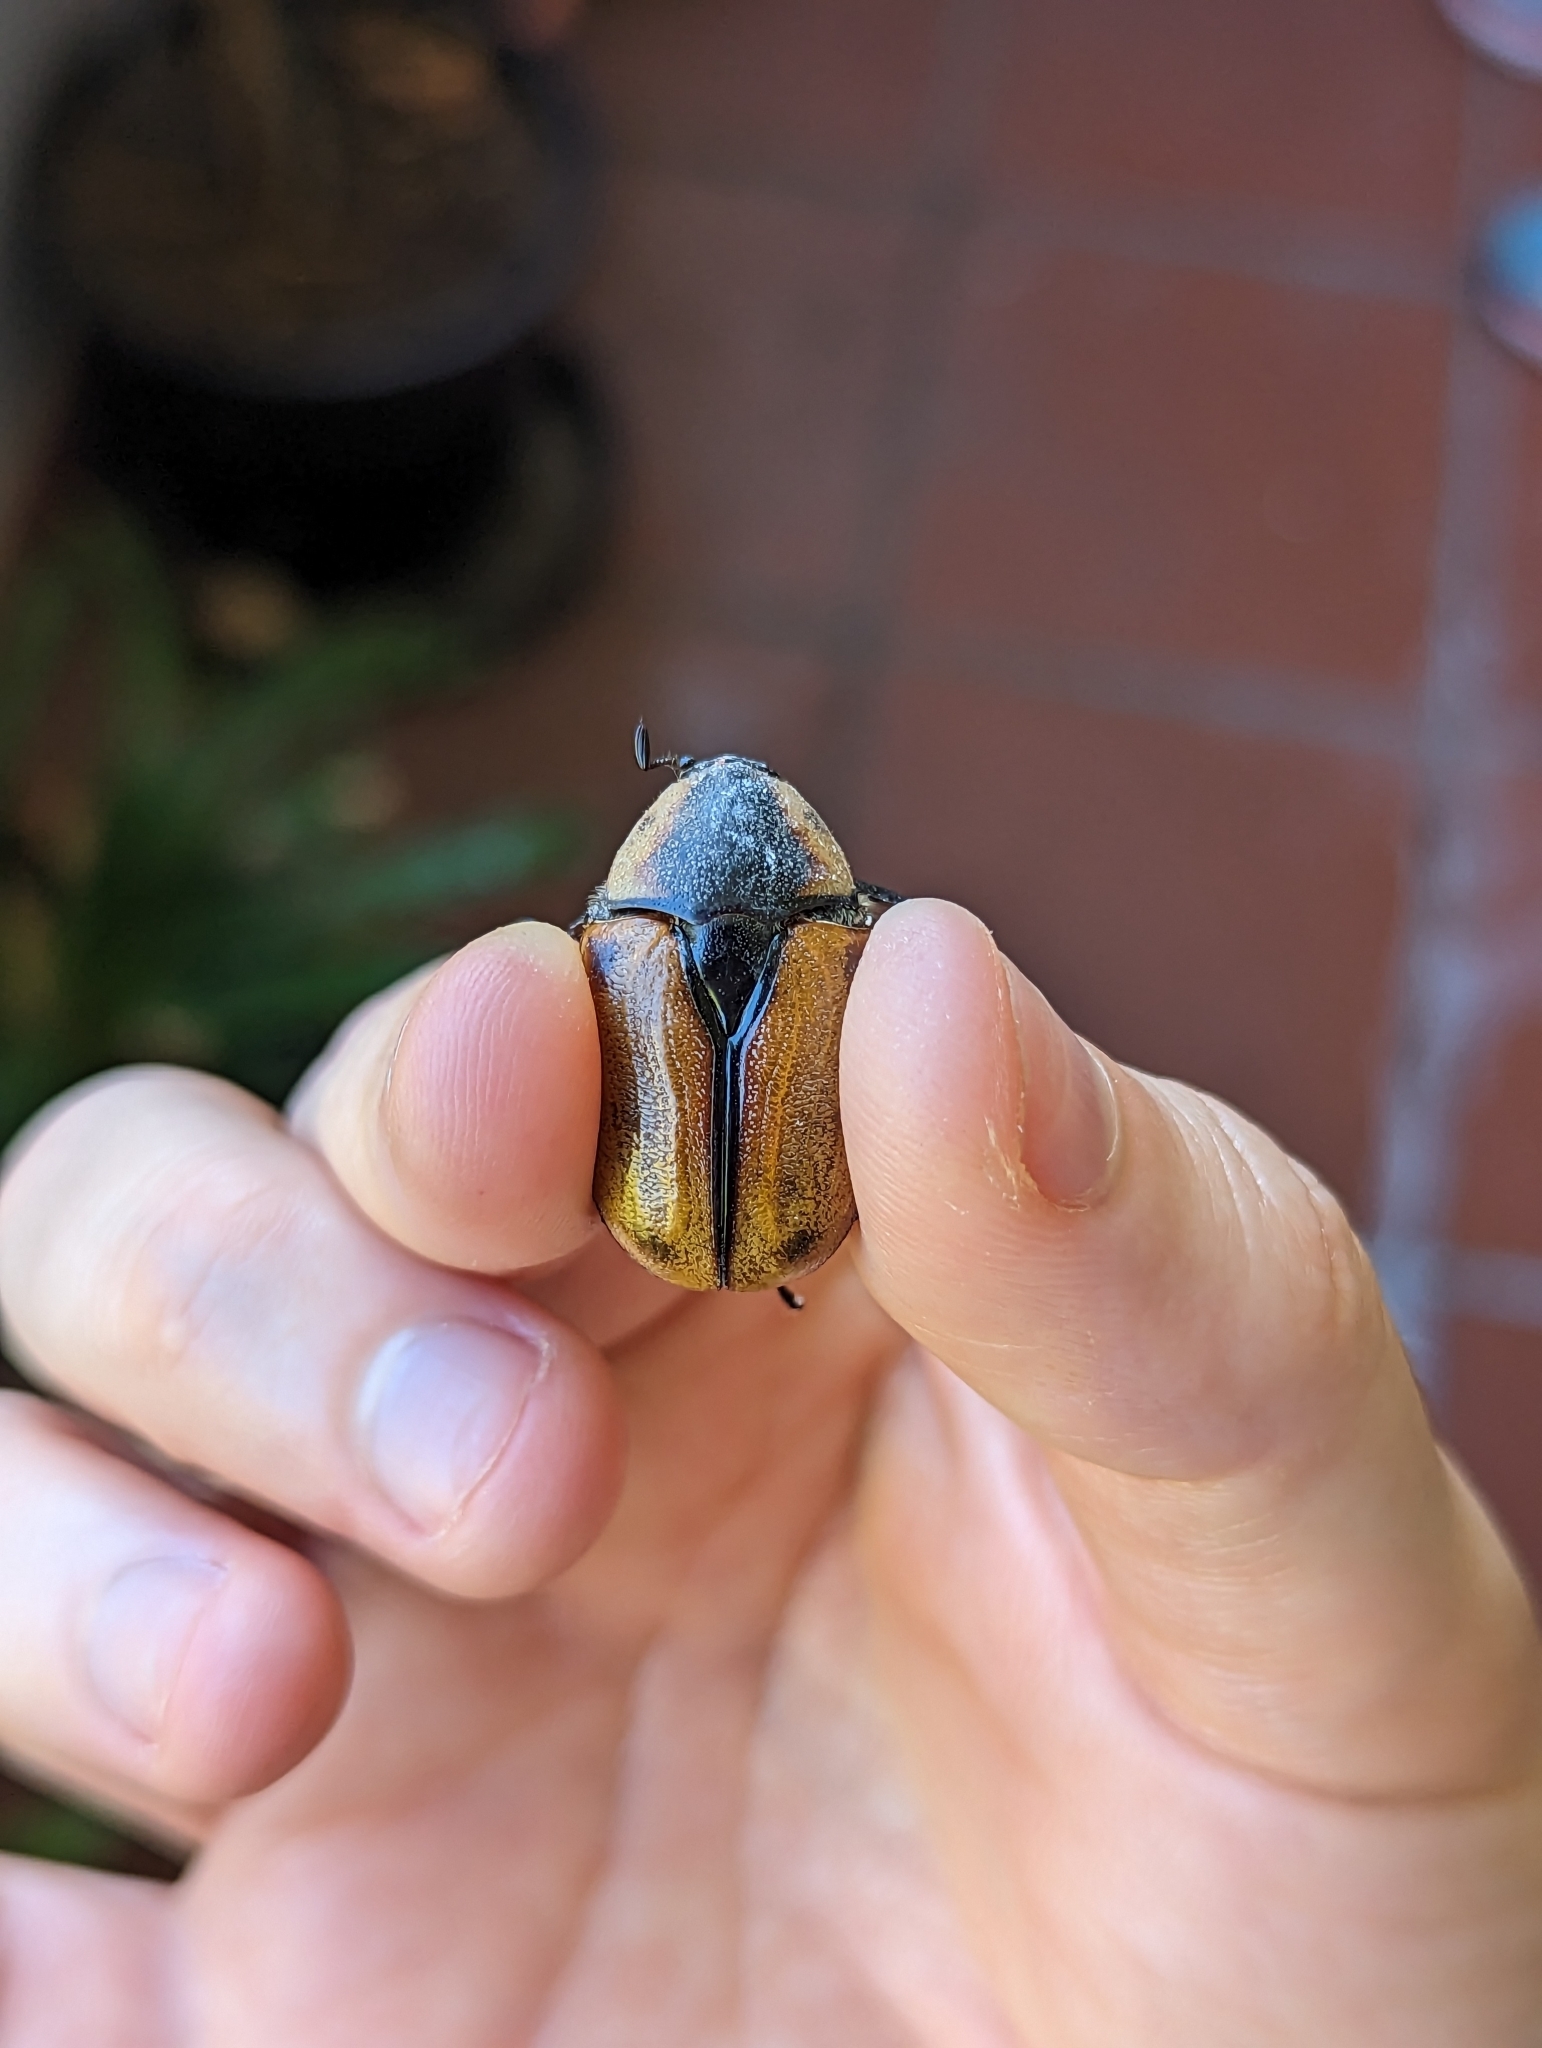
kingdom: Animalia
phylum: Arthropoda
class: Insecta
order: Coleoptera
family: Scarabaeidae
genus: Chondropyga
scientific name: Chondropyga dorsalis
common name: Cowboy beetle
